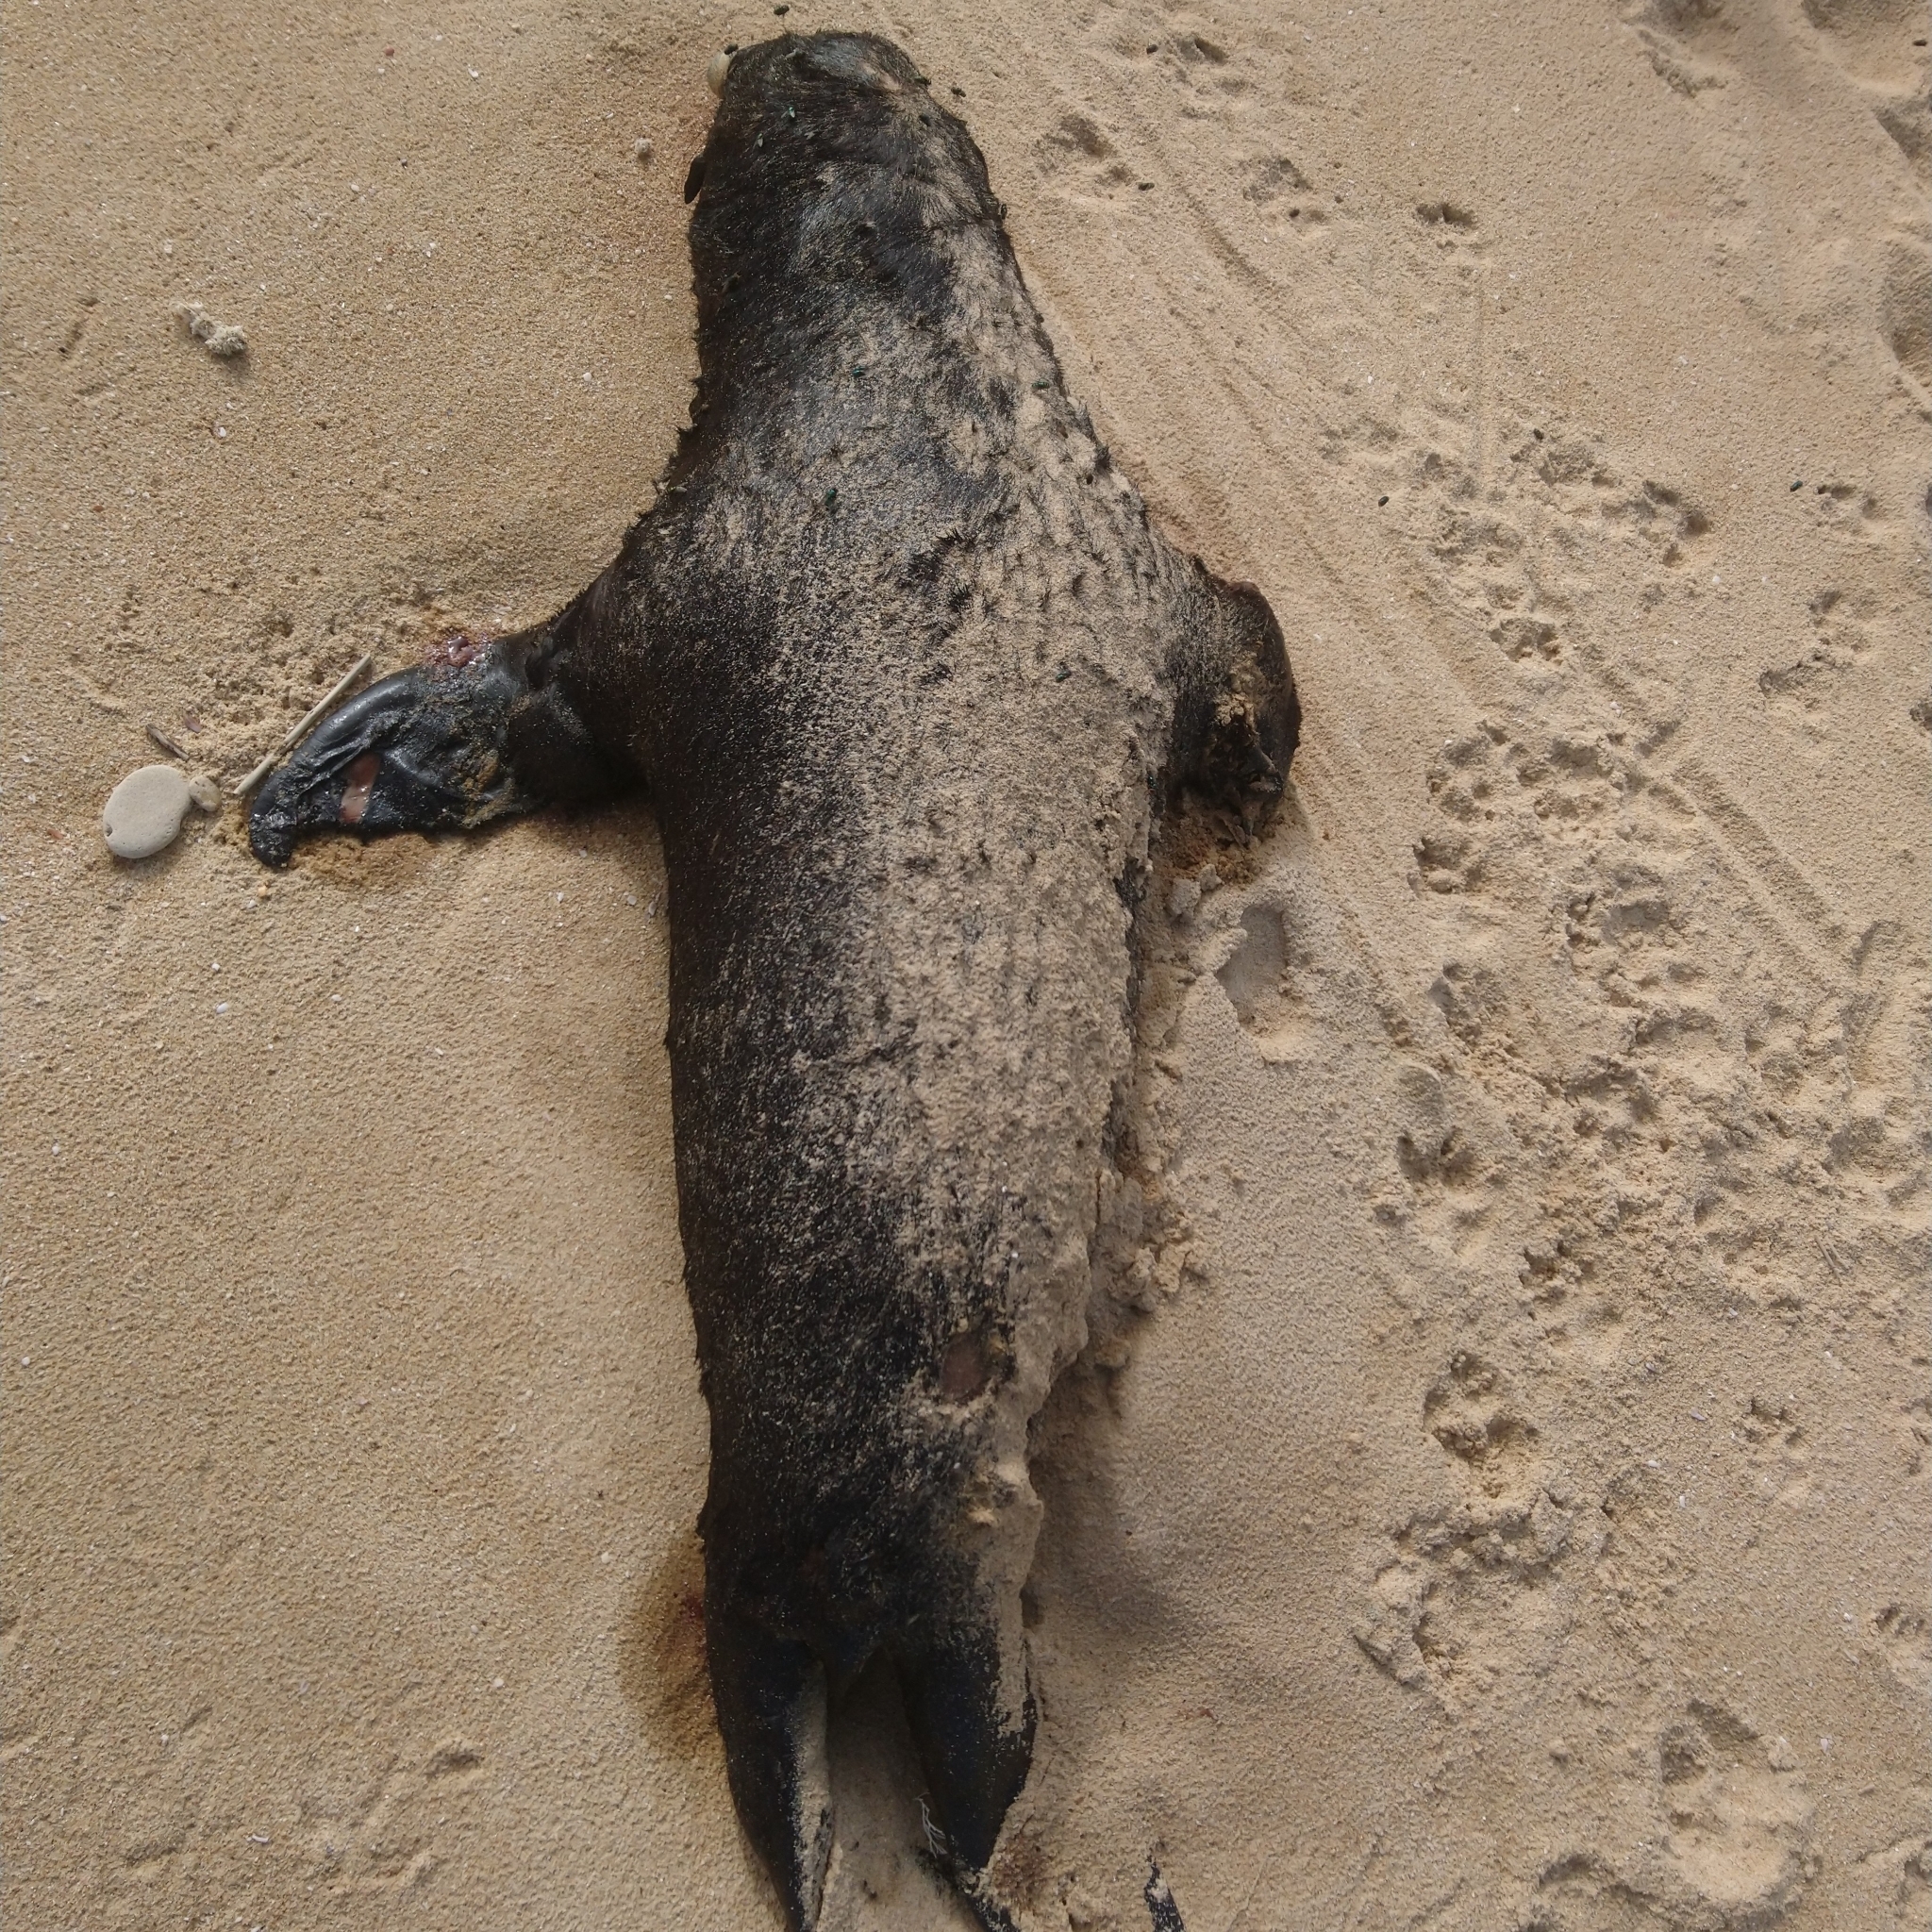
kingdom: Animalia
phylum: Chordata
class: Mammalia
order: Carnivora
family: Otariidae
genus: Arctocephalus
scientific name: Arctocephalus pusillus
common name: Brown fur seal
